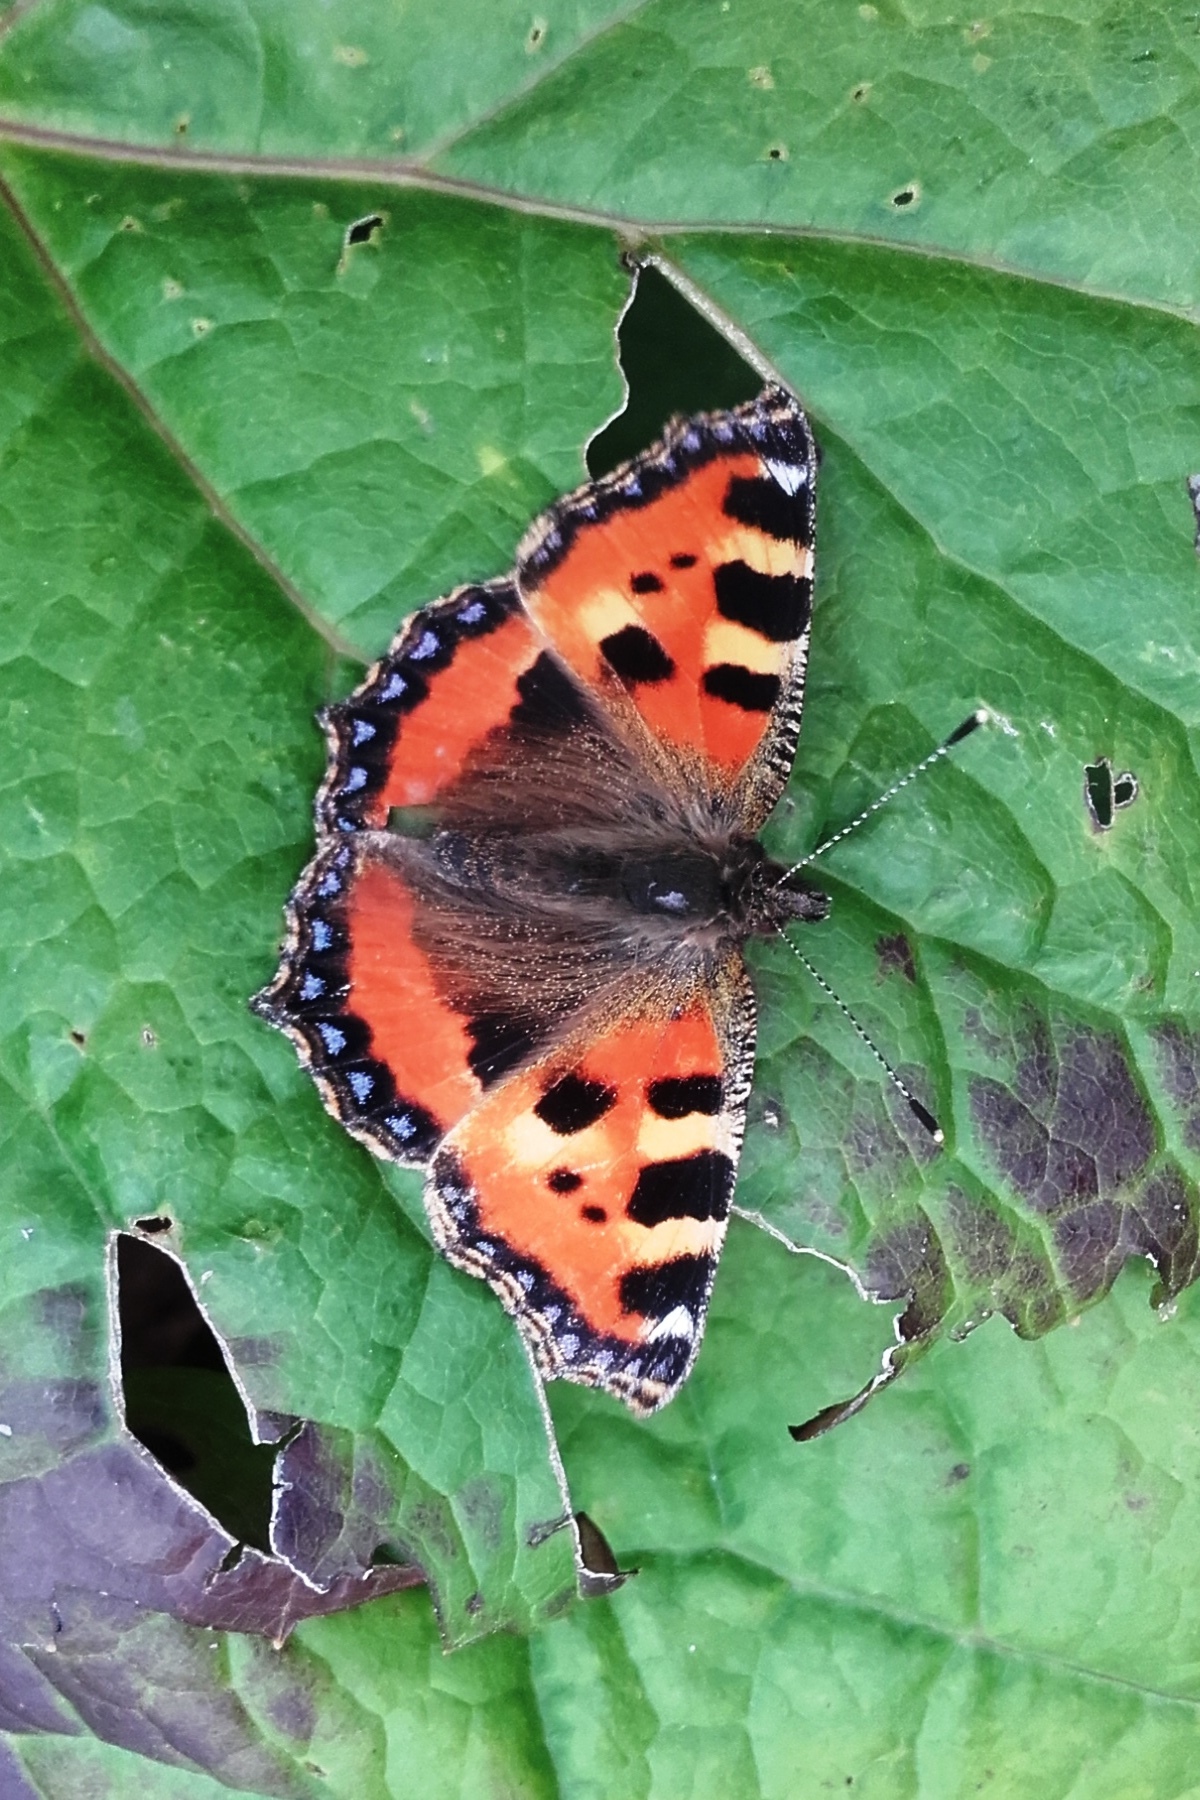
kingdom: Animalia
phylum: Arthropoda
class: Insecta
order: Lepidoptera
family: Nymphalidae
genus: Aglais
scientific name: Aglais urticae
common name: Small tortoiseshell
